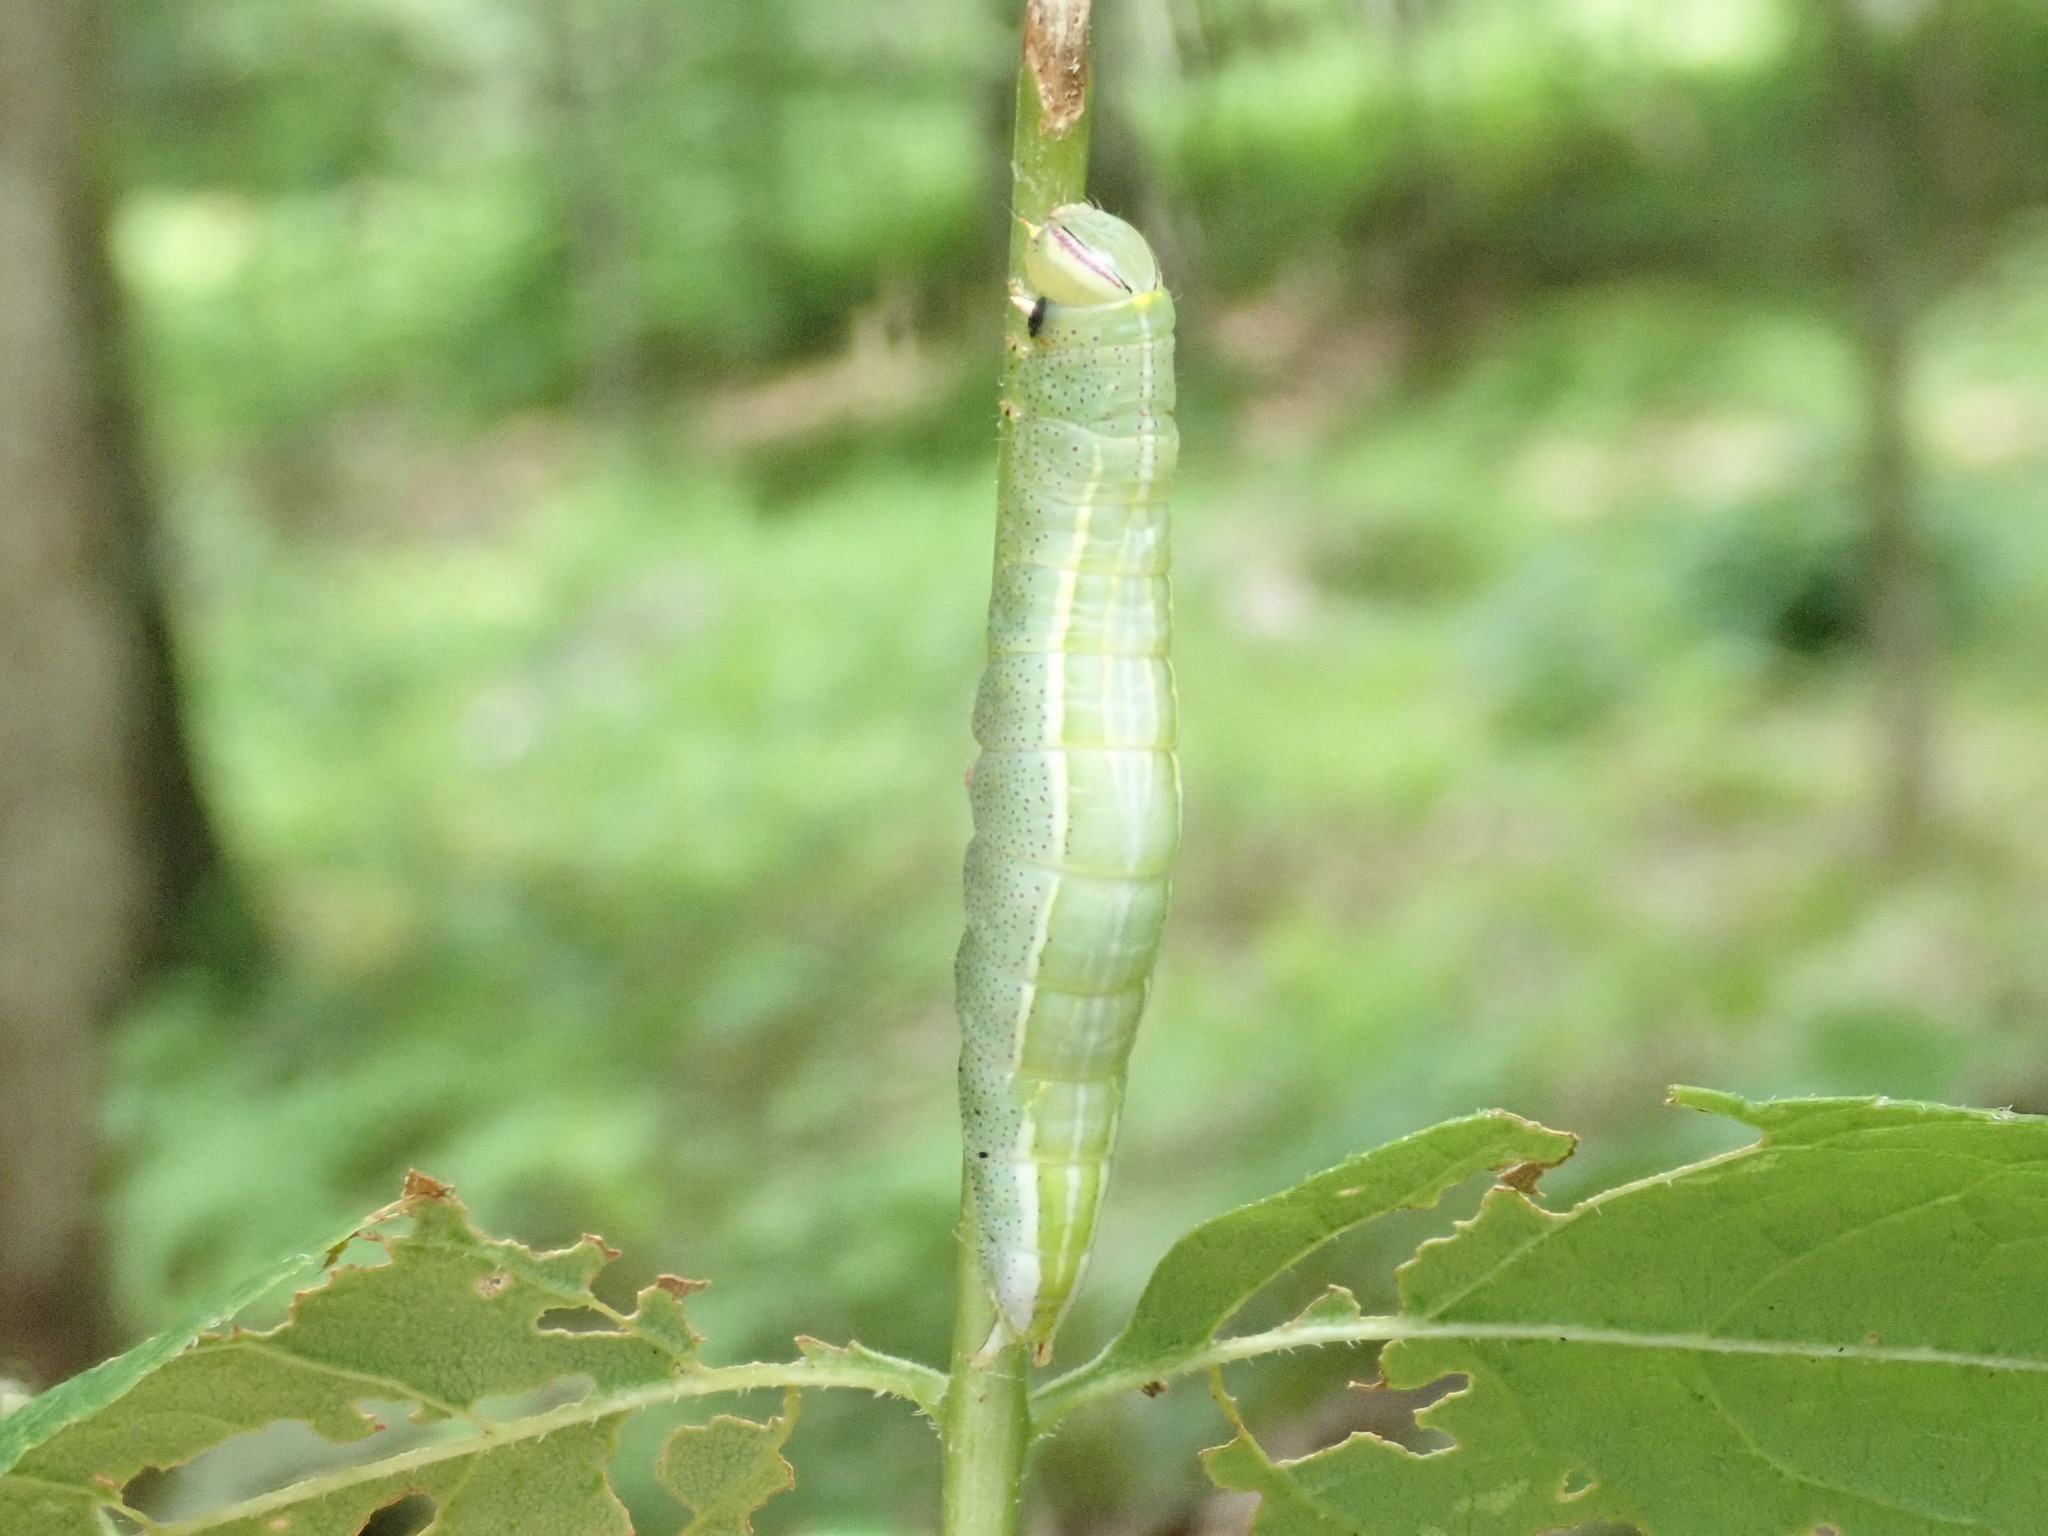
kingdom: Animalia
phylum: Arthropoda
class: Insecta
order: Lepidoptera
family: Notodontidae
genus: Disphragis
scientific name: Disphragis Cecrita guttivitta
